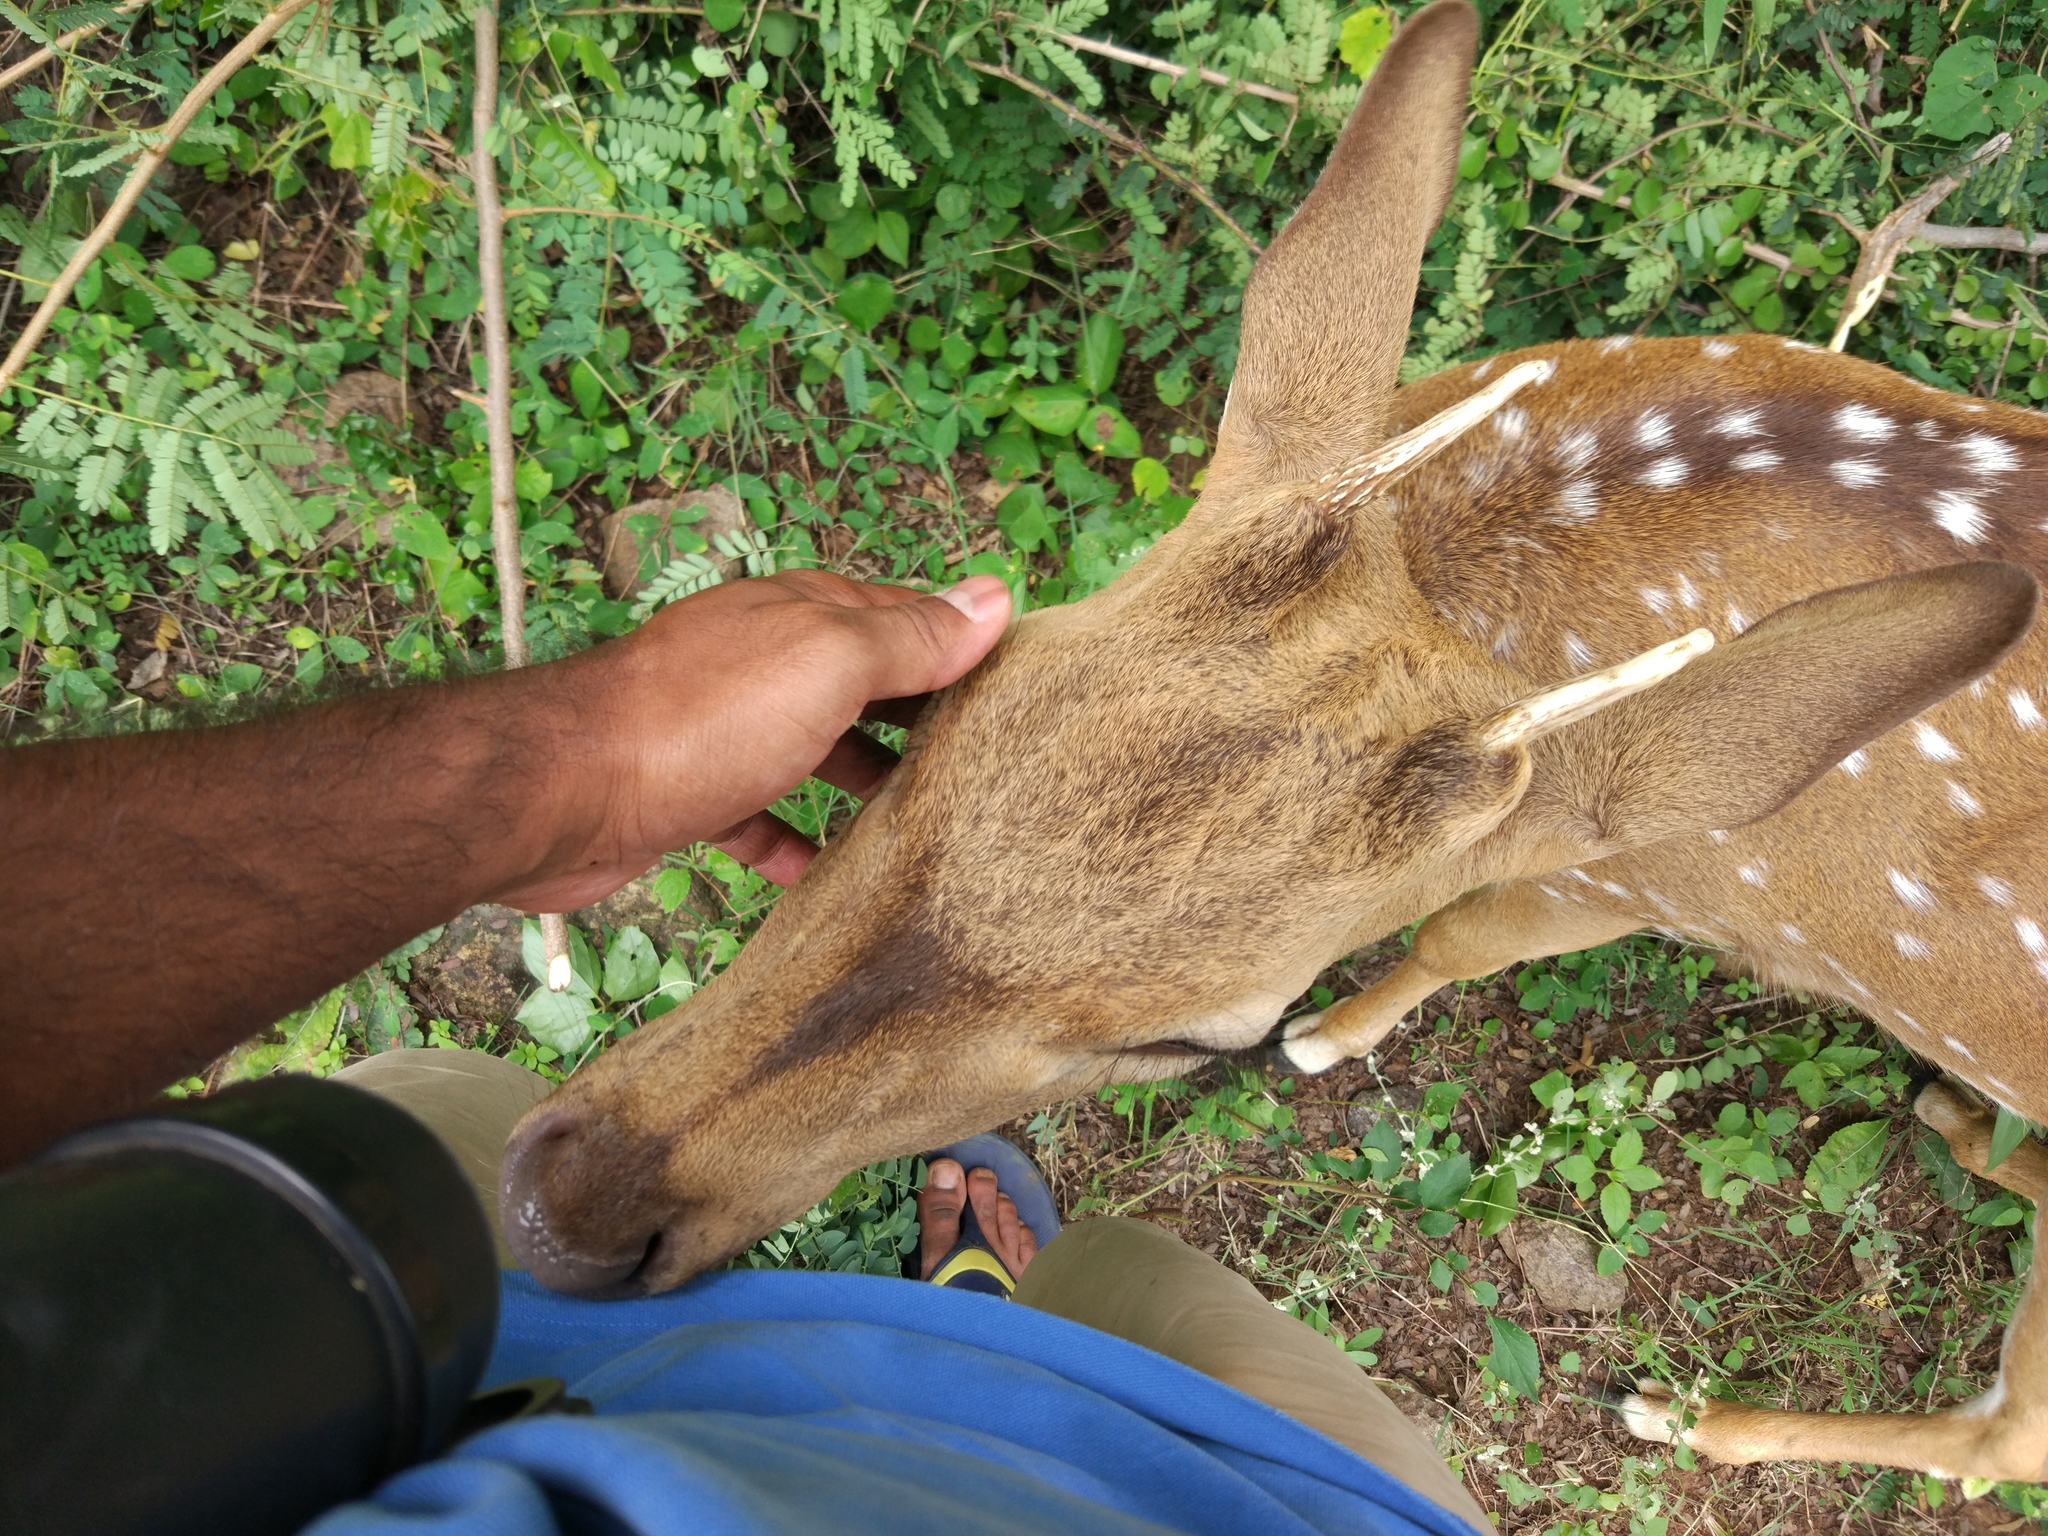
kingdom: Animalia
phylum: Chordata
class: Mammalia
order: Artiodactyla
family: Cervidae
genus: Axis
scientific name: Axis axis
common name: Chital
